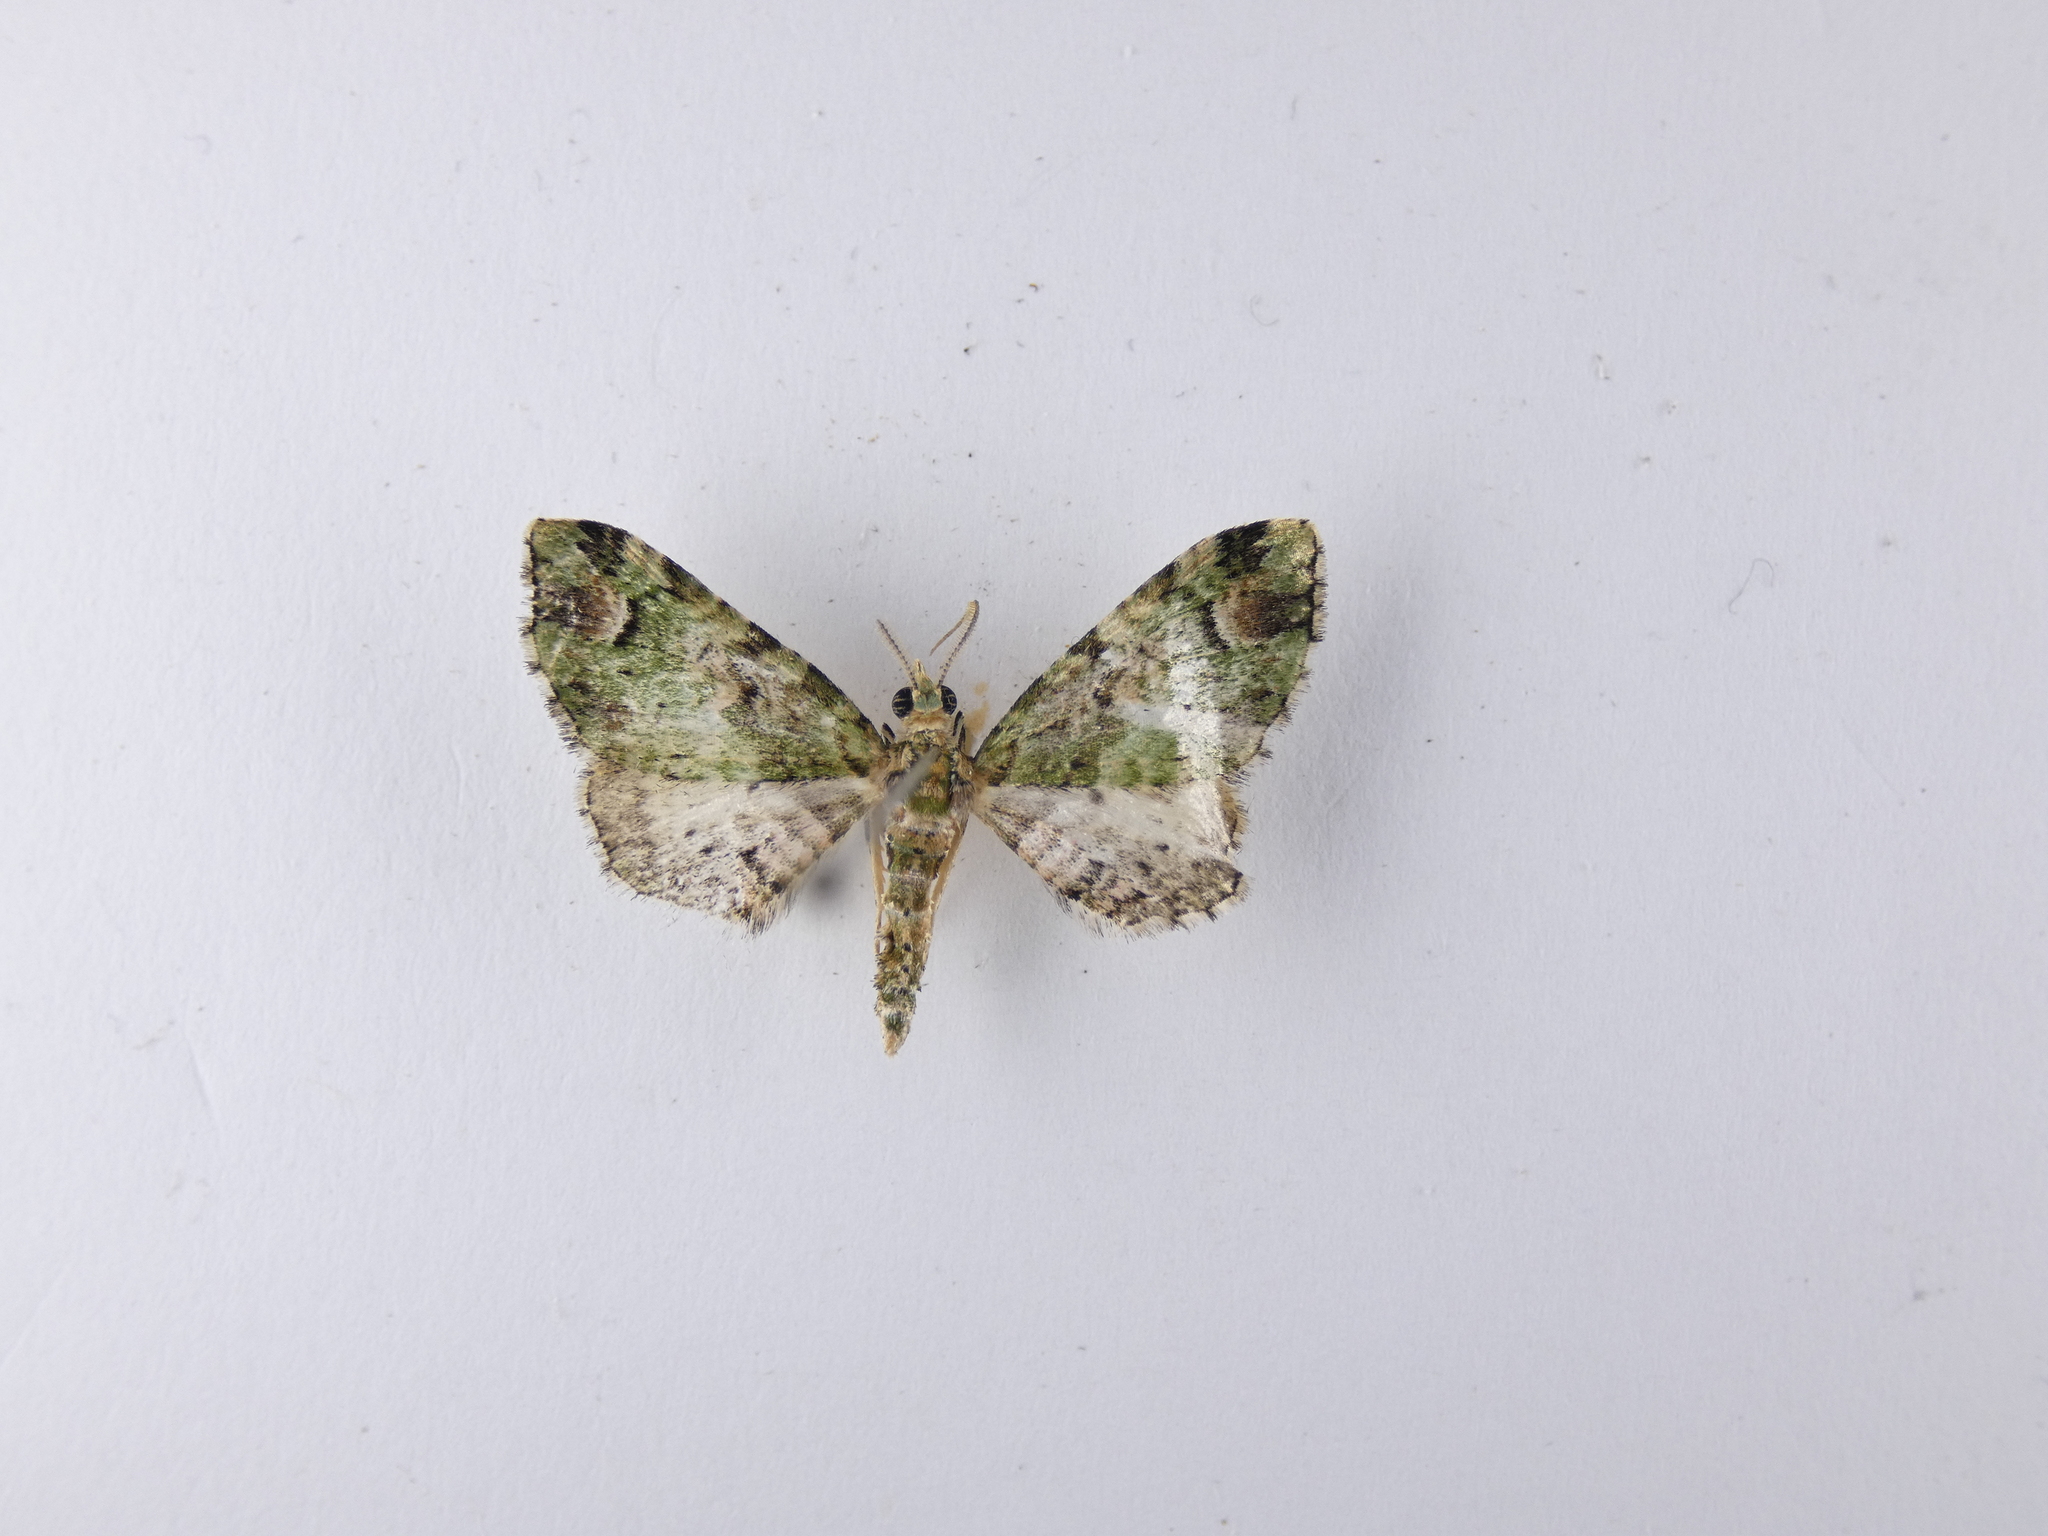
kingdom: Animalia
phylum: Arthropoda
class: Insecta
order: Lepidoptera
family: Geometridae
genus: Pasiphila
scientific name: Pasiphila semochlora
